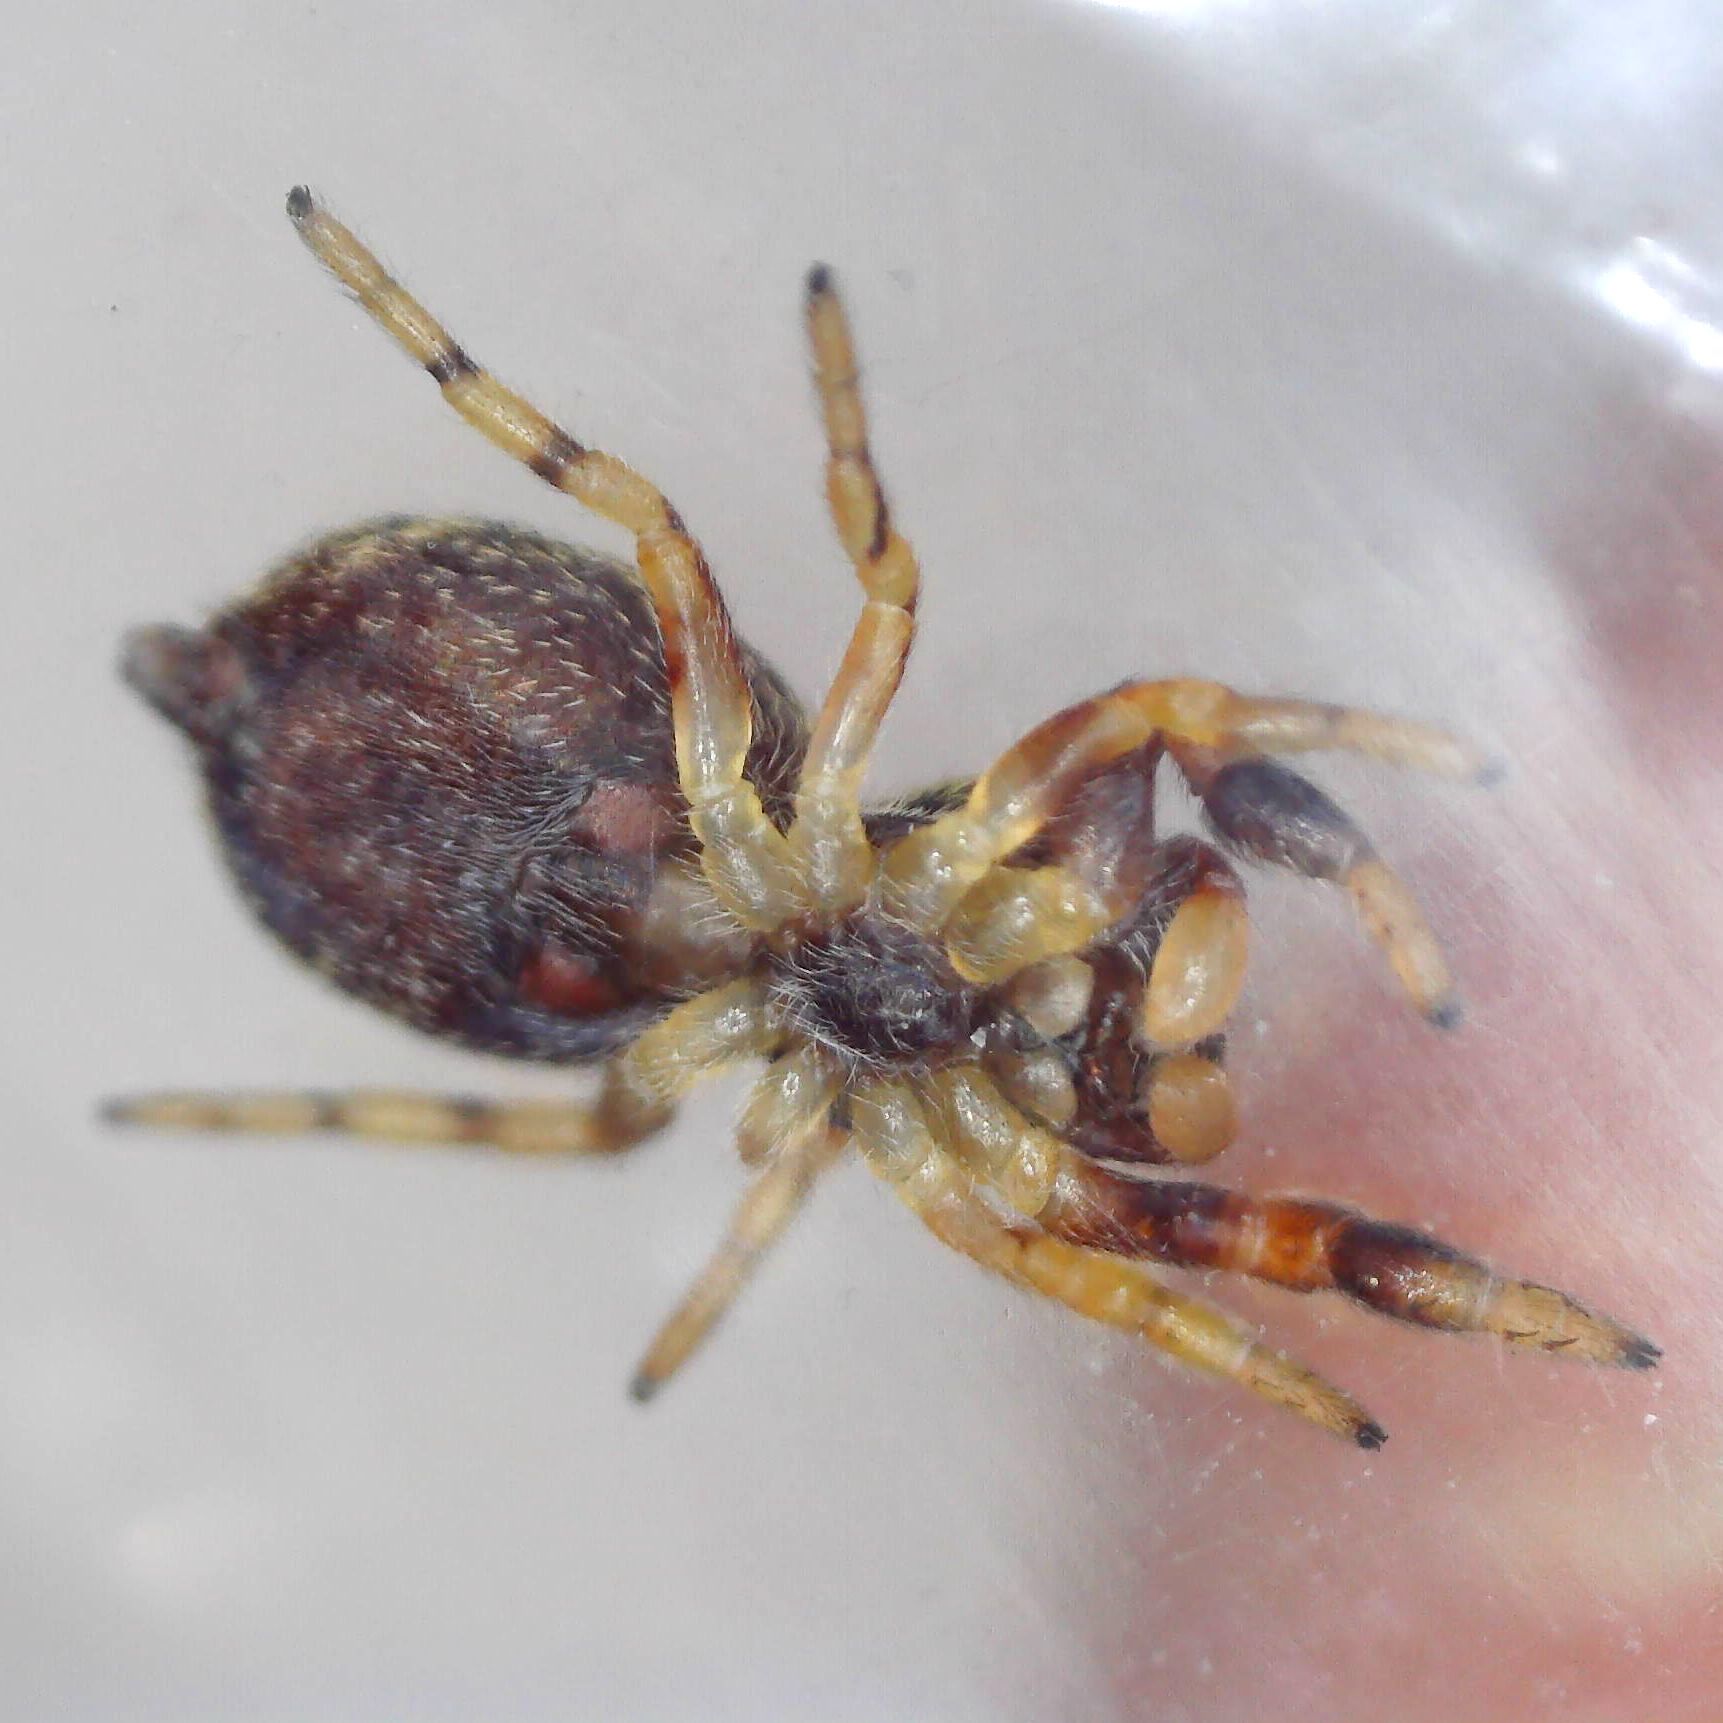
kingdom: Animalia
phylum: Arthropoda
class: Arachnida
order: Araneae
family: Salticidae
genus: Ballus
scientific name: Ballus chalybeius
